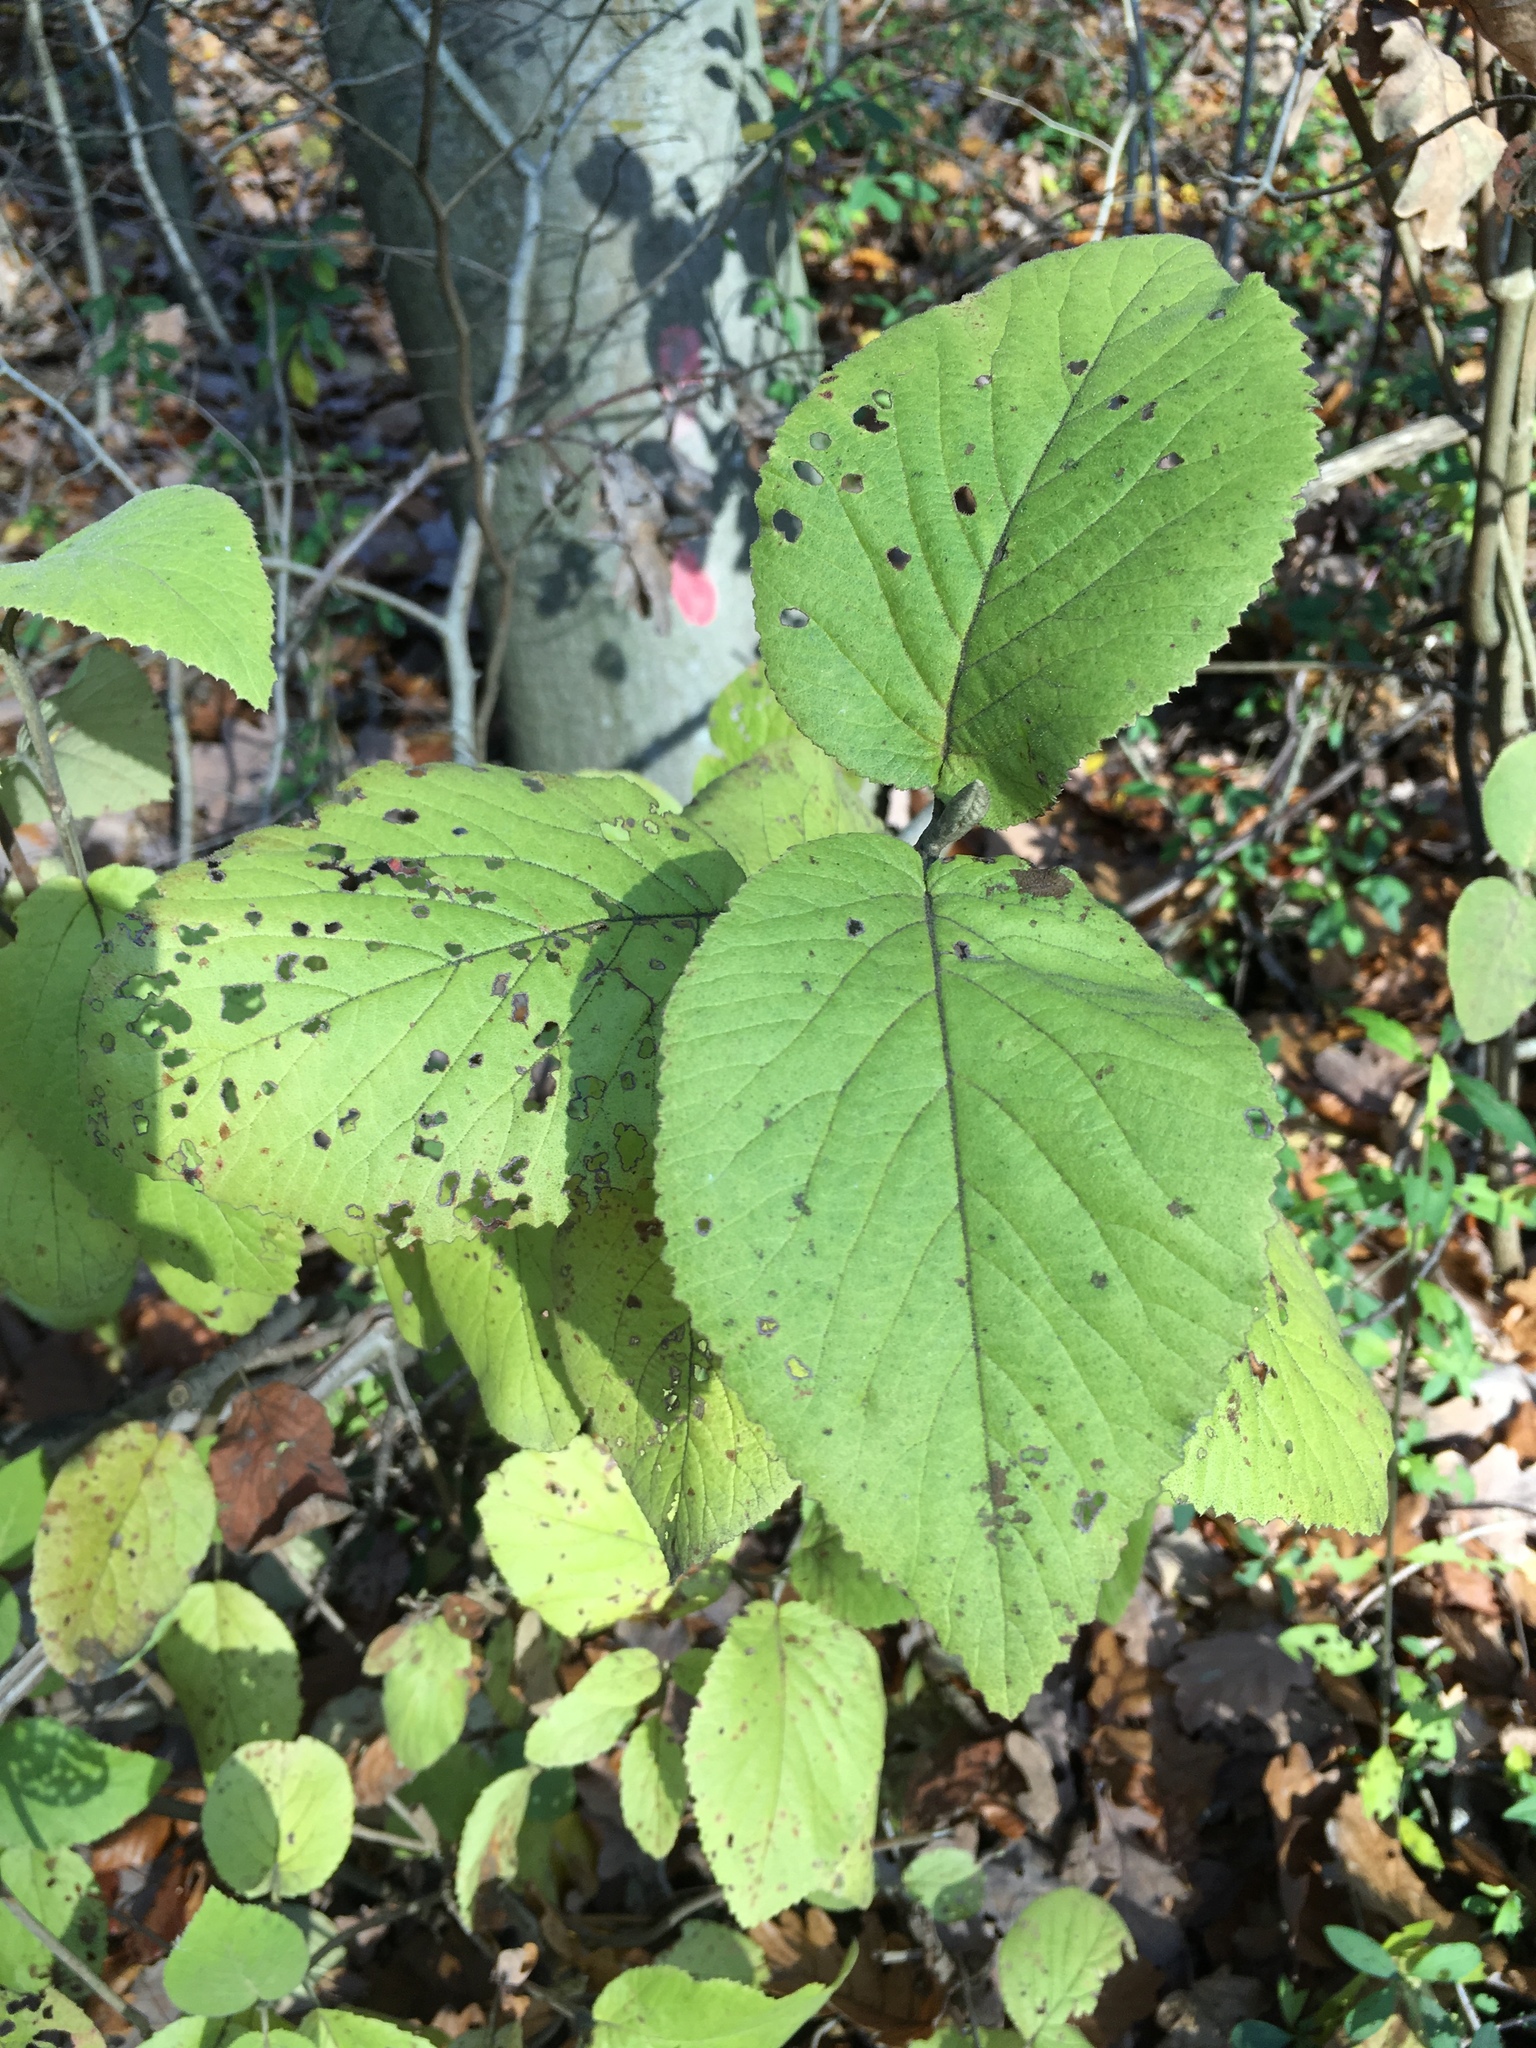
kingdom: Plantae
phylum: Tracheophyta
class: Magnoliopsida
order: Dipsacales
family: Viburnaceae
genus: Viburnum
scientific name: Viburnum lantana
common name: Wayfaring tree
